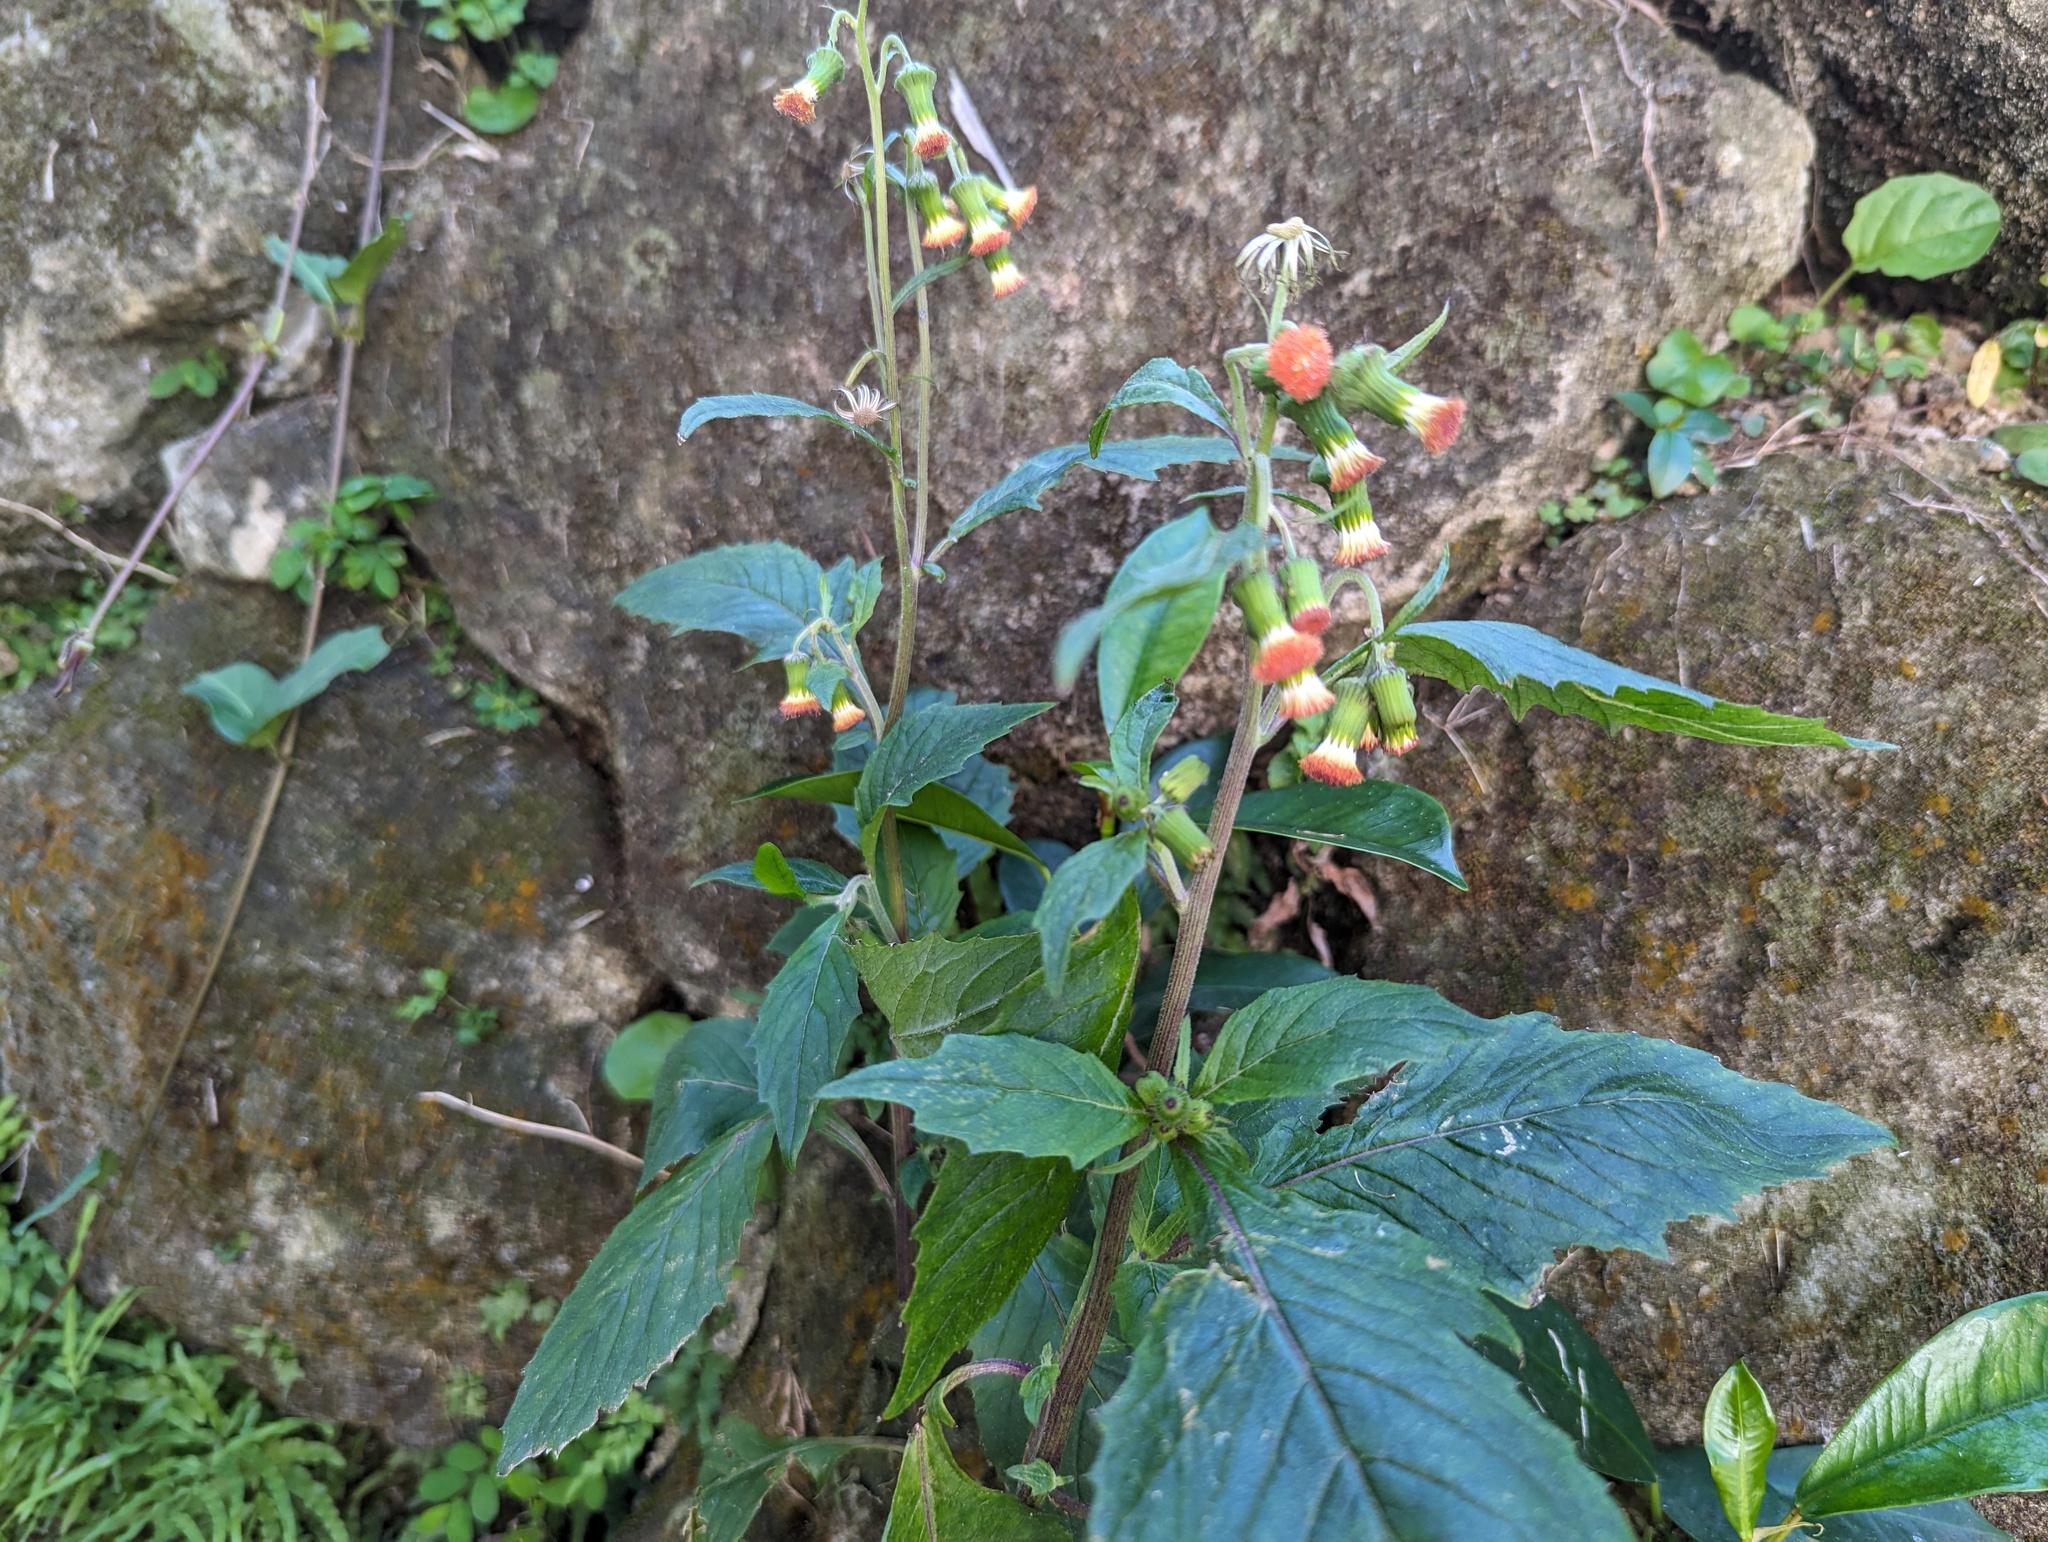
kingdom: Plantae
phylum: Tracheophyta
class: Magnoliopsida
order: Asterales
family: Asteraceae
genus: Crassocephalum
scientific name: Crassocephalum crepidioides
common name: Redflower ragleaf
